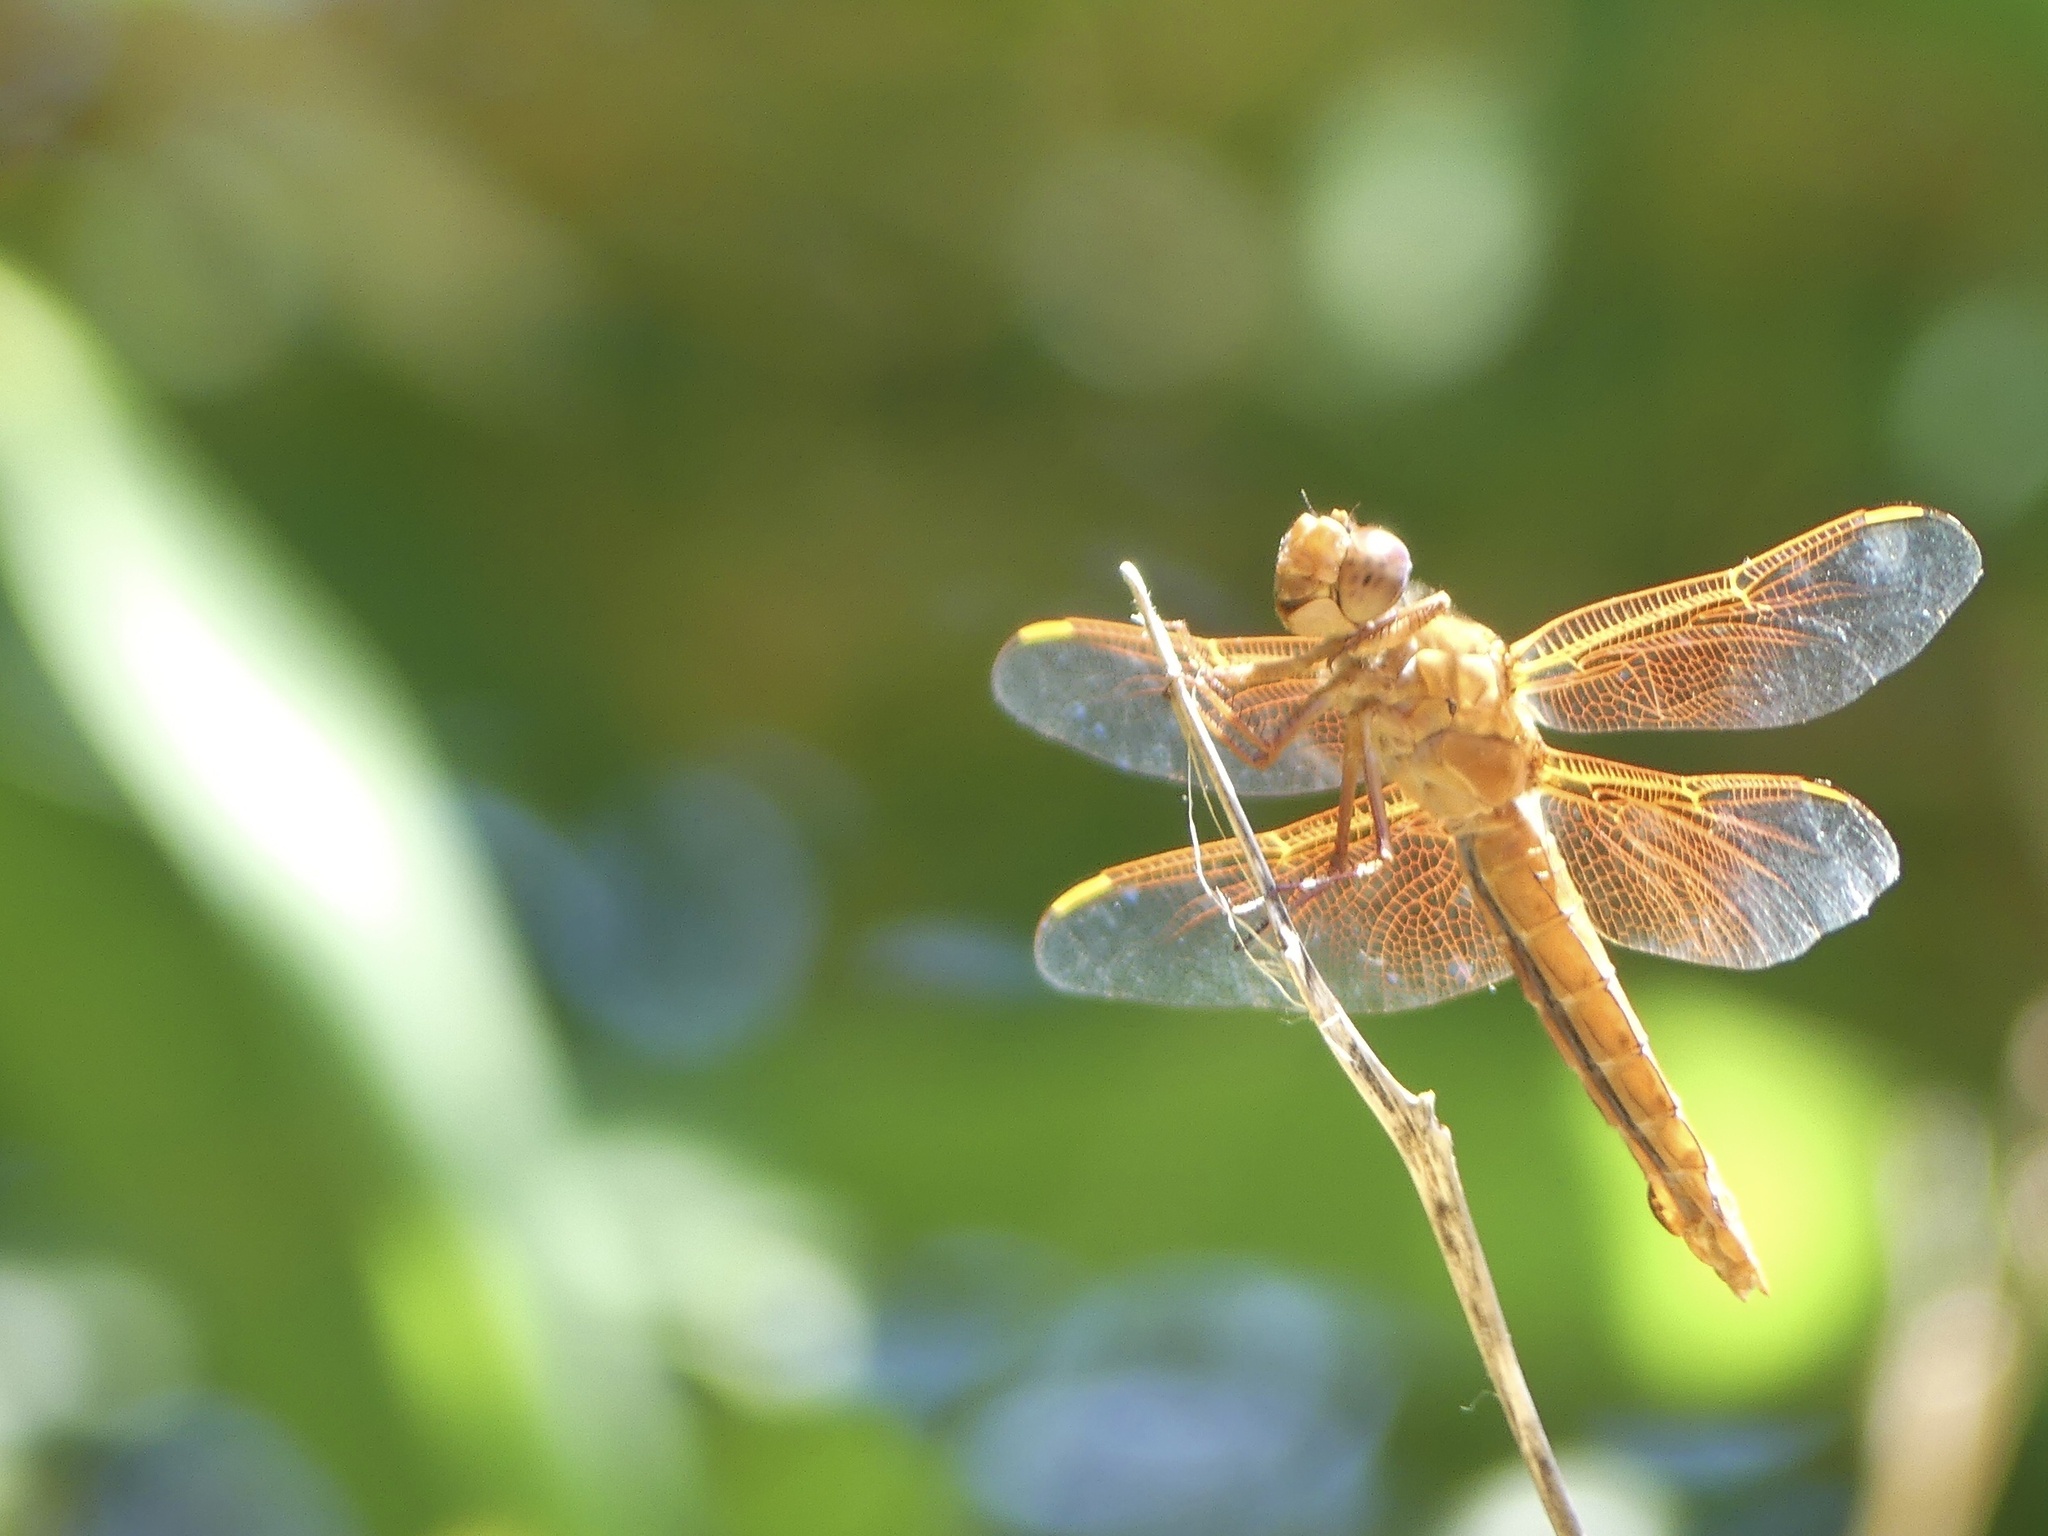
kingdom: Animalia
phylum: Arthropoda
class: Insecta
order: Odonata
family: Libellulidae
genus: Libellula
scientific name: Libellula saturata
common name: Flame skimmer
